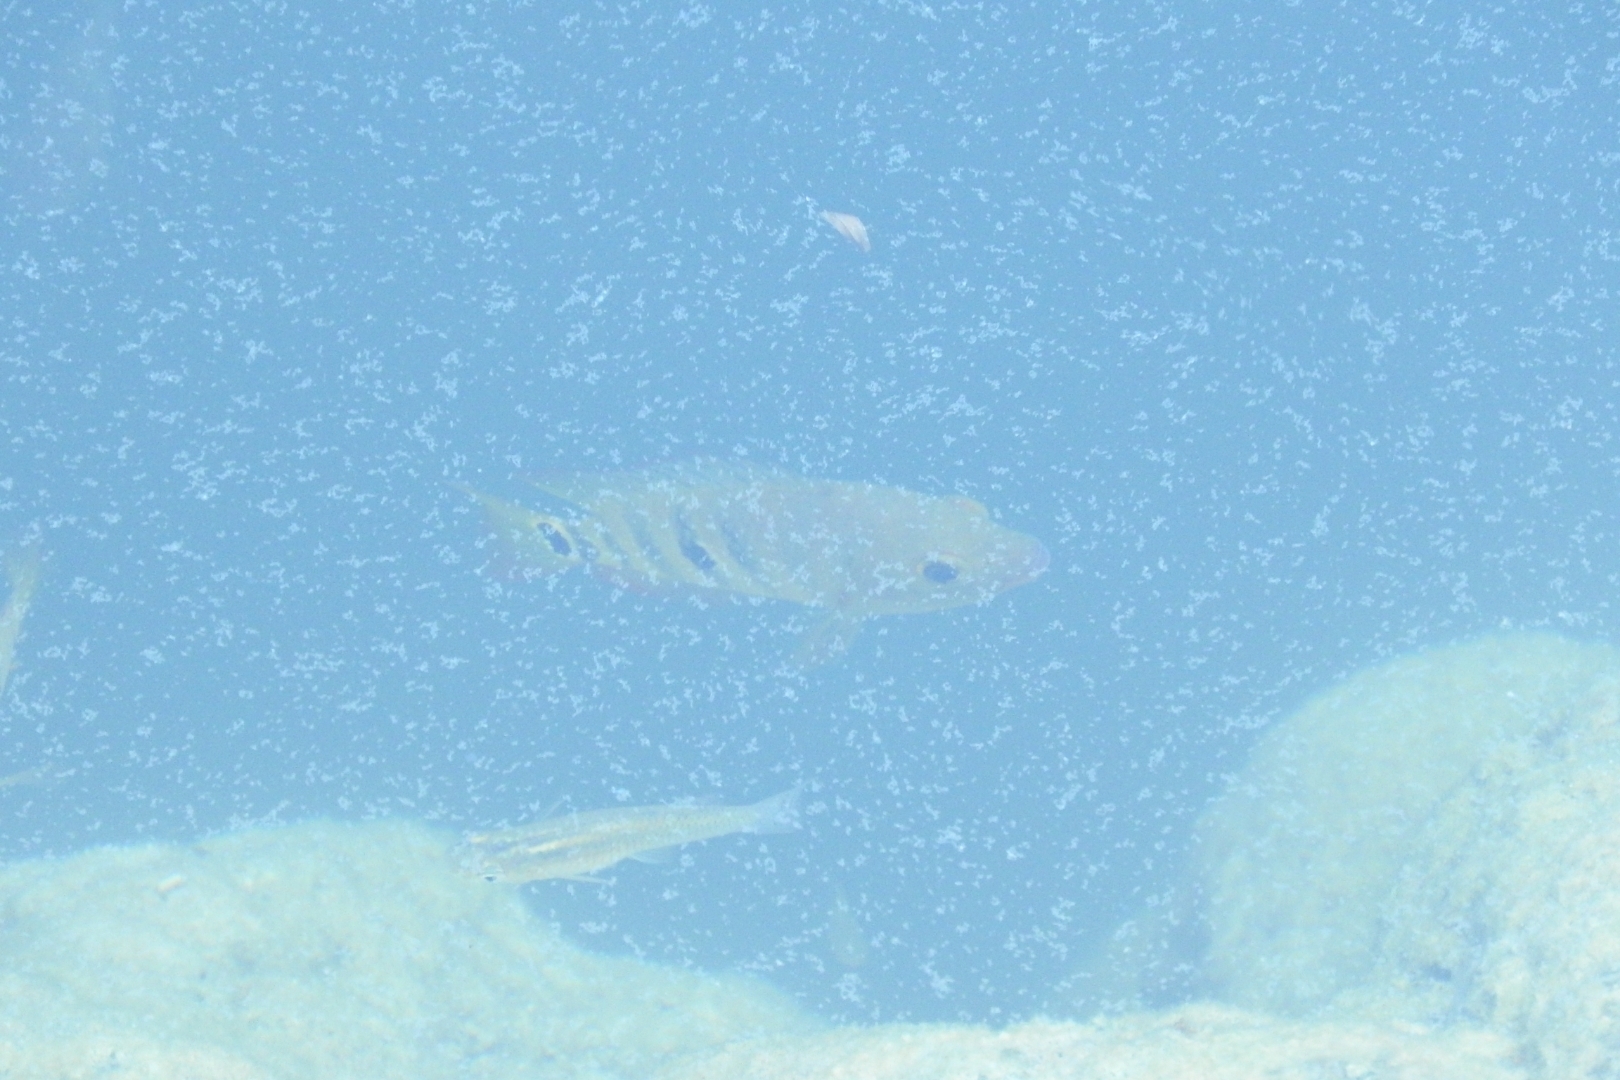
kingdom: Animalia
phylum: Chordata
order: Perciformes
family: Cichlidae
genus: Mayaheros
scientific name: Mayaheros urophthalmus
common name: Mayan cichlid
